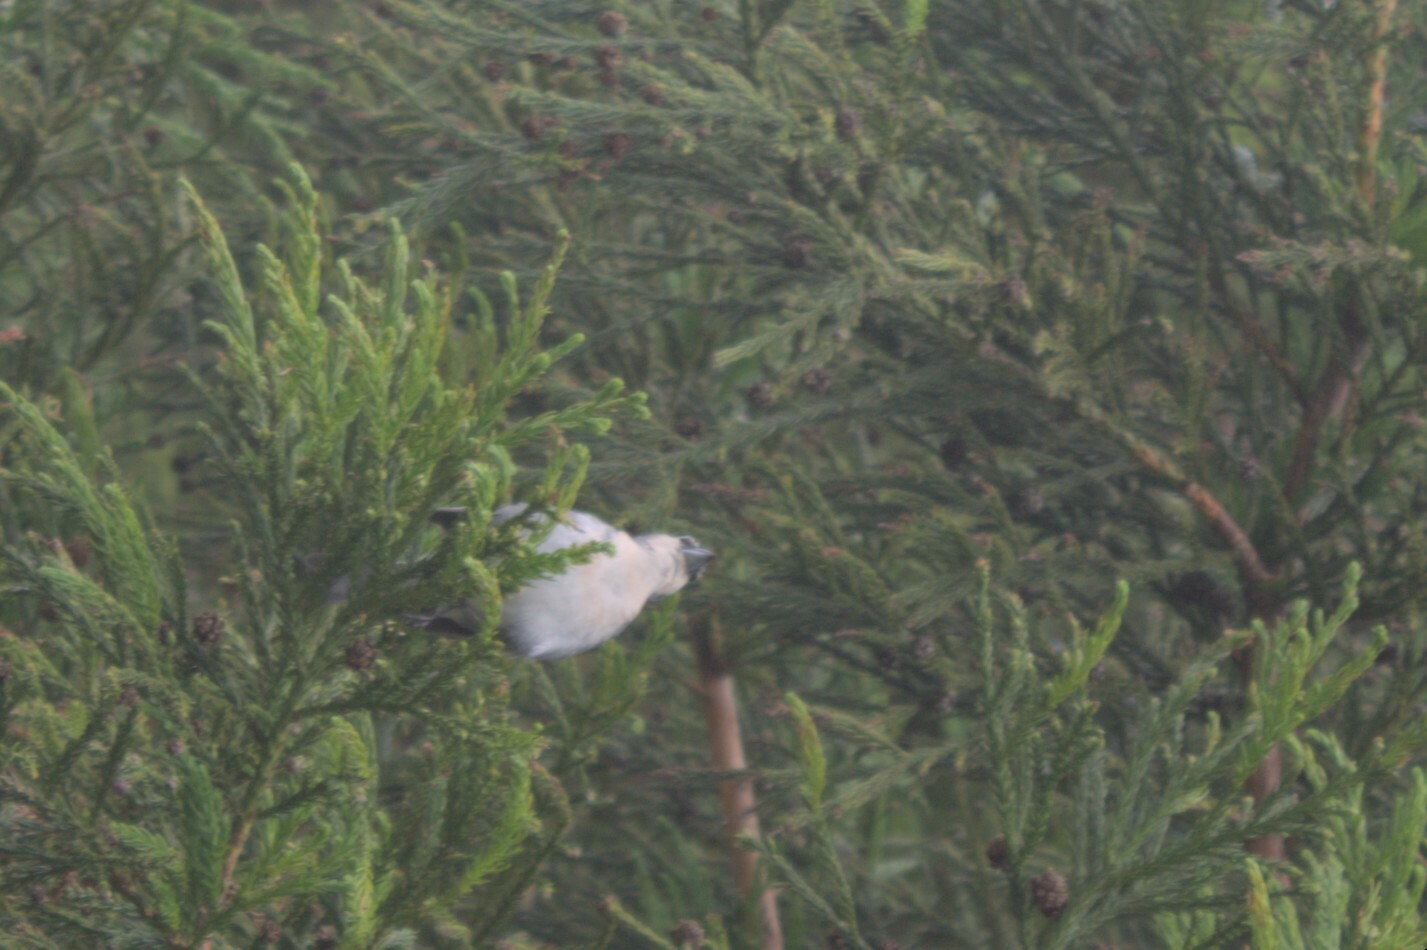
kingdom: Animalia
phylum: Chordata
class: Aves
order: Passeriformes
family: Fringillidae
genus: Fringilla
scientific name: Fringilla moreletti
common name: Azores chaffinch
